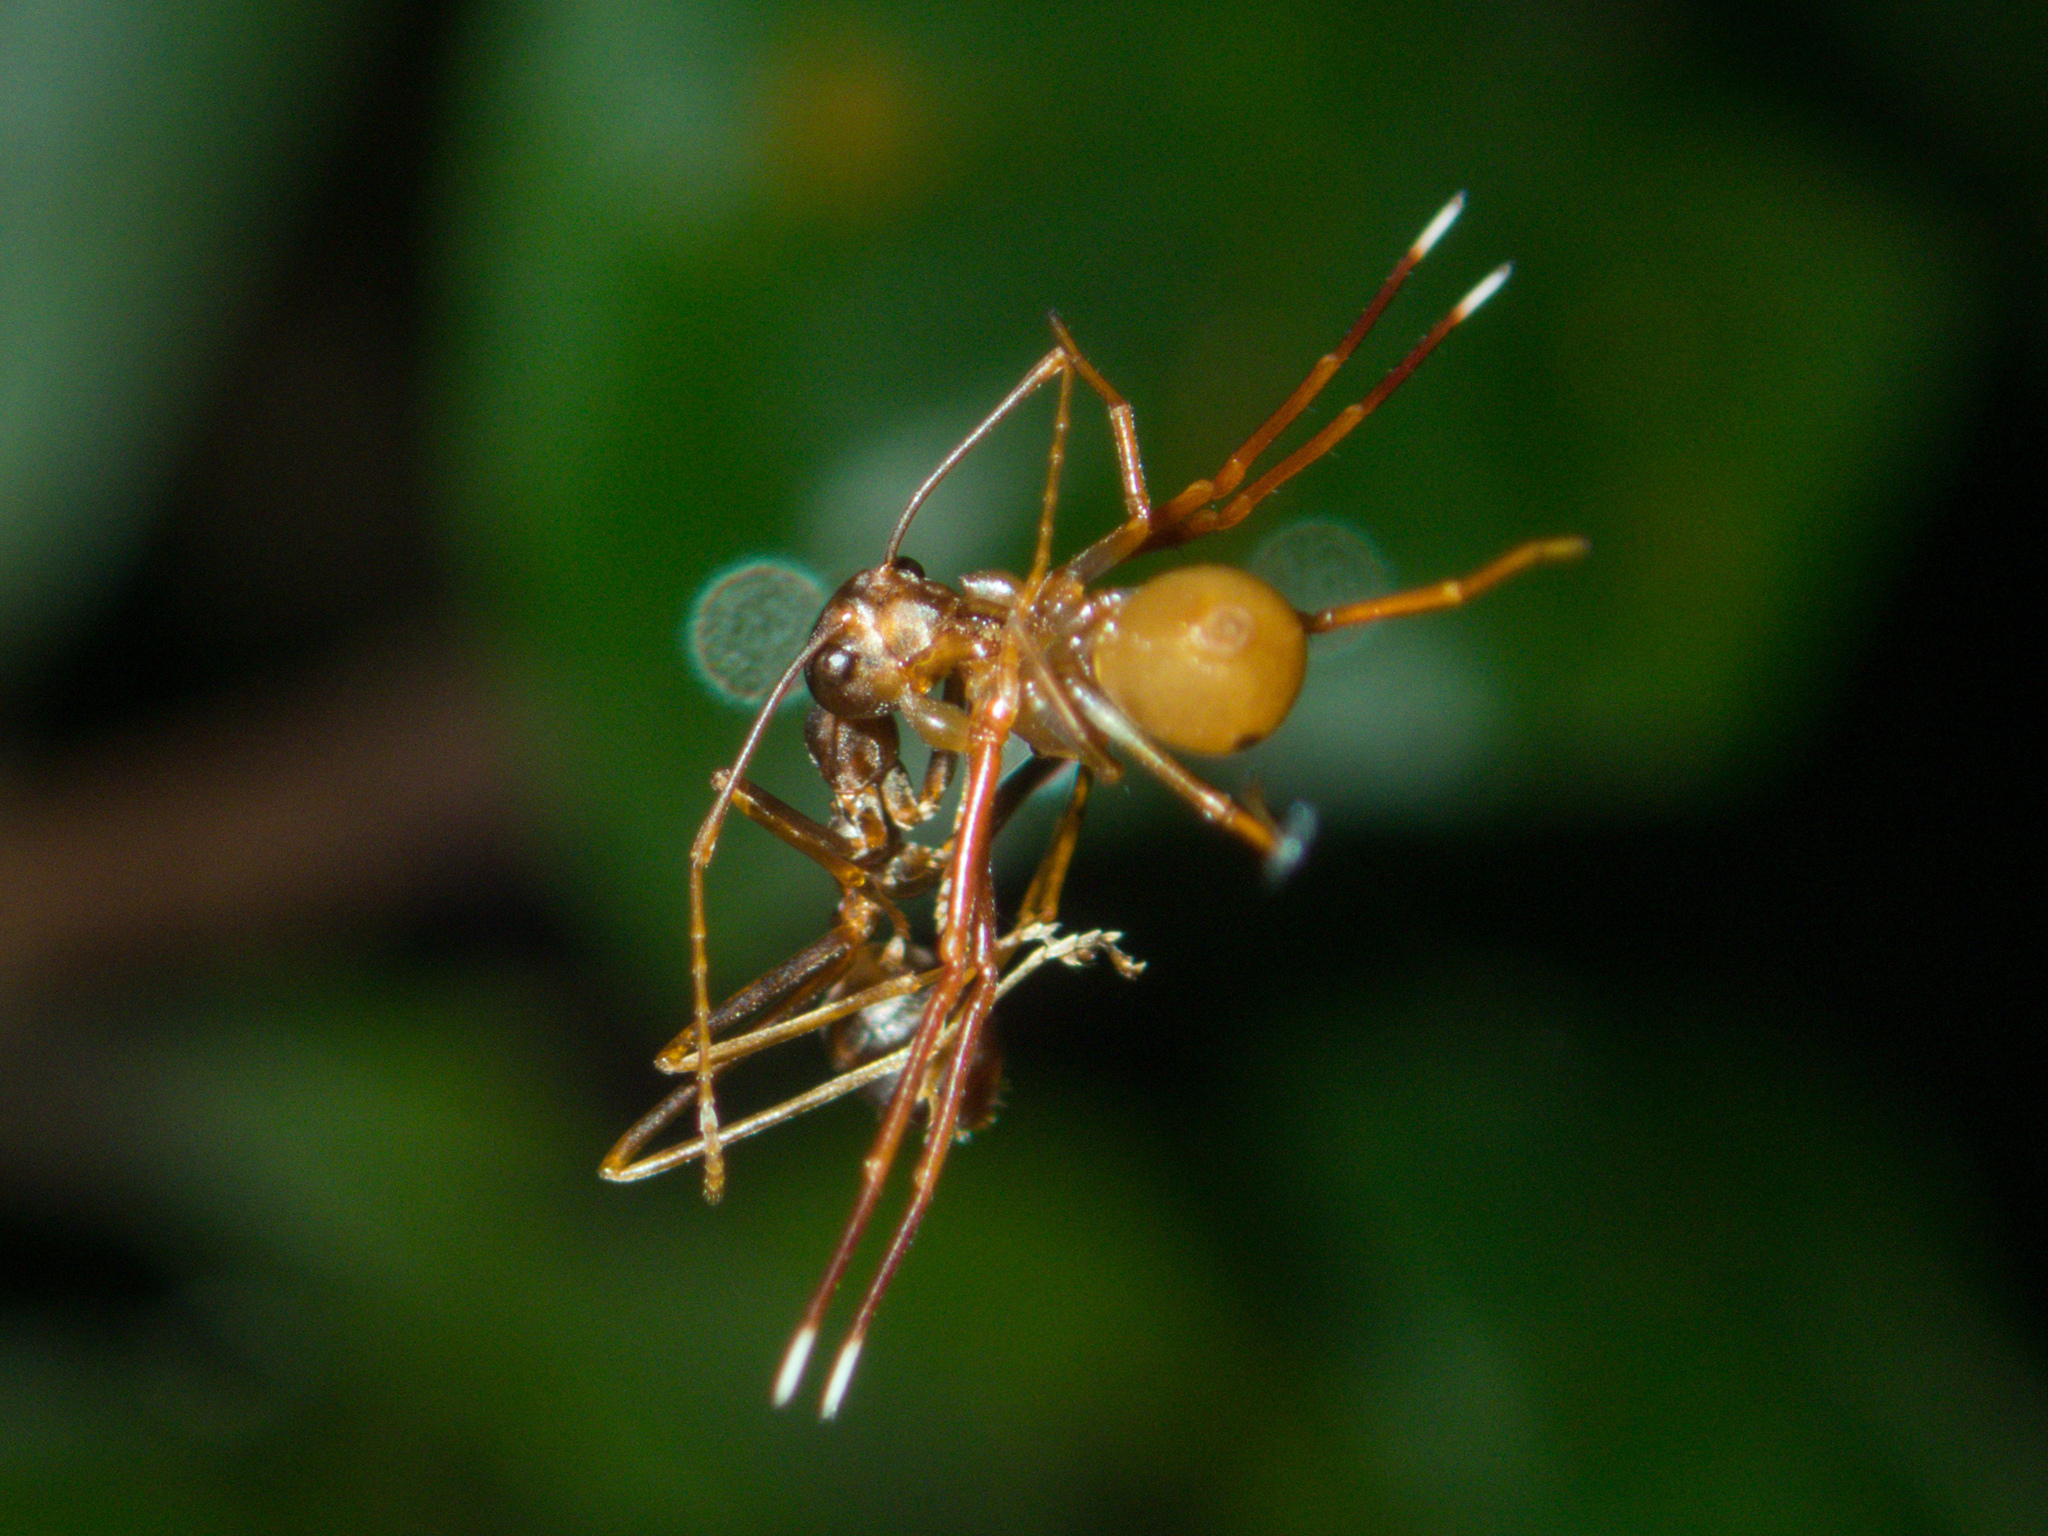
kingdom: Animalia
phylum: Arthropoda
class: Arachnida
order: Araneae
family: Thomisidae
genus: Amyciaea
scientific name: Amyciaea forticeps
